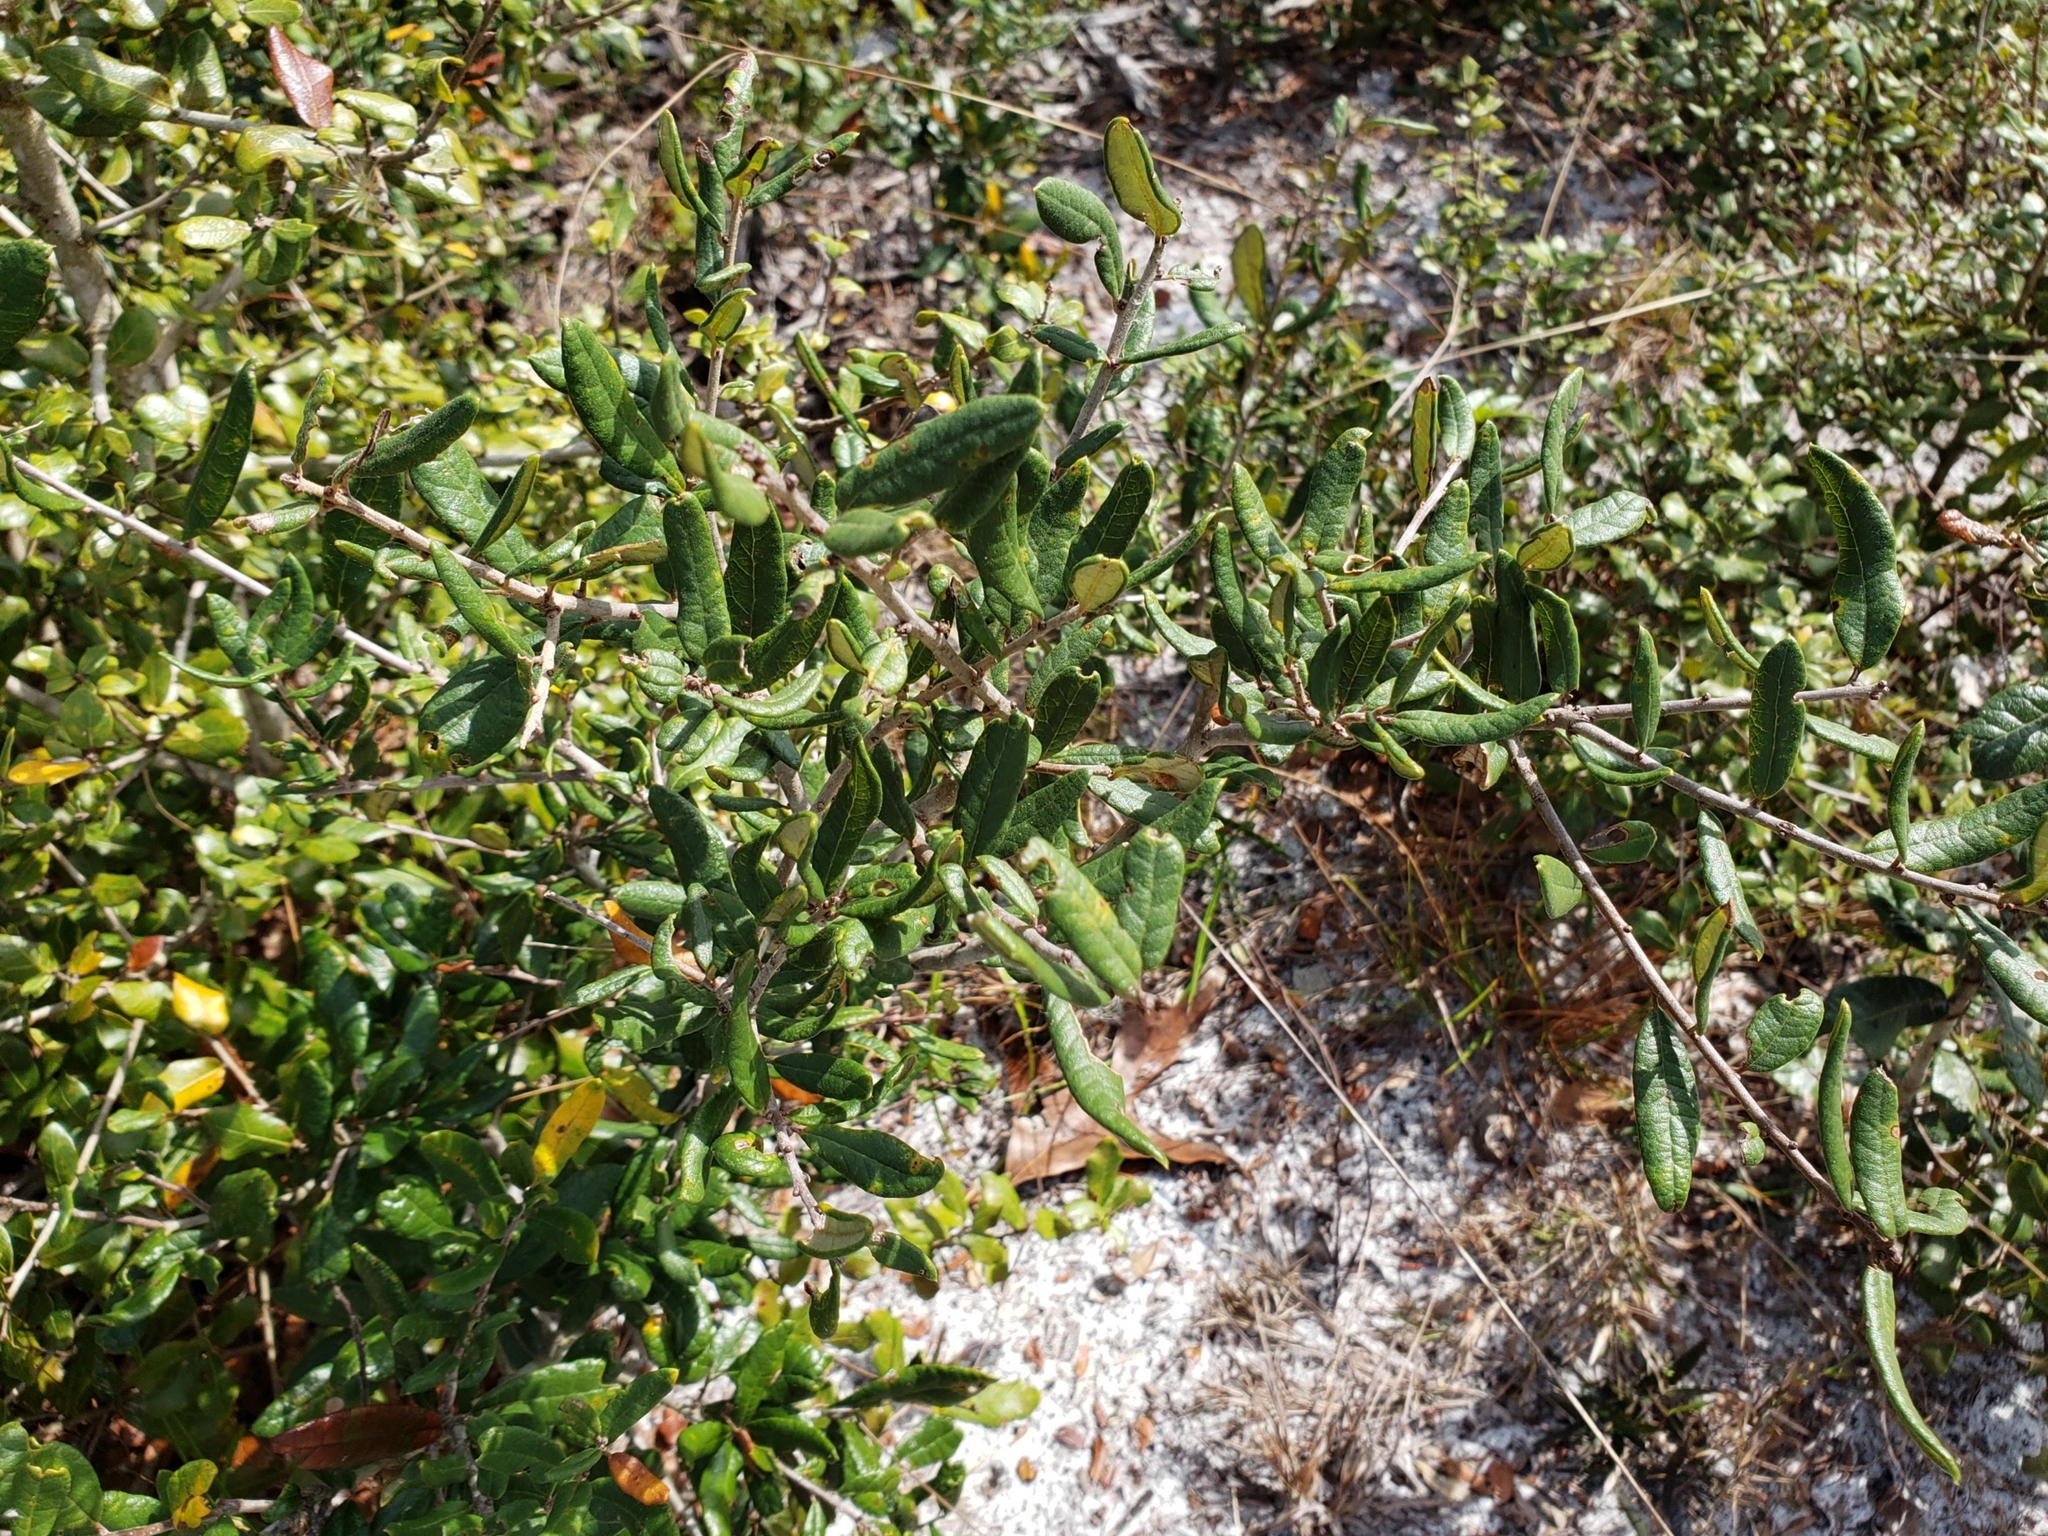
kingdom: Plantae
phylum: Tracheophyta
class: Magnoliopsida
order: Fagales
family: Fagaceae
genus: Quercus
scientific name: Quercus geminata
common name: Sand live oak
